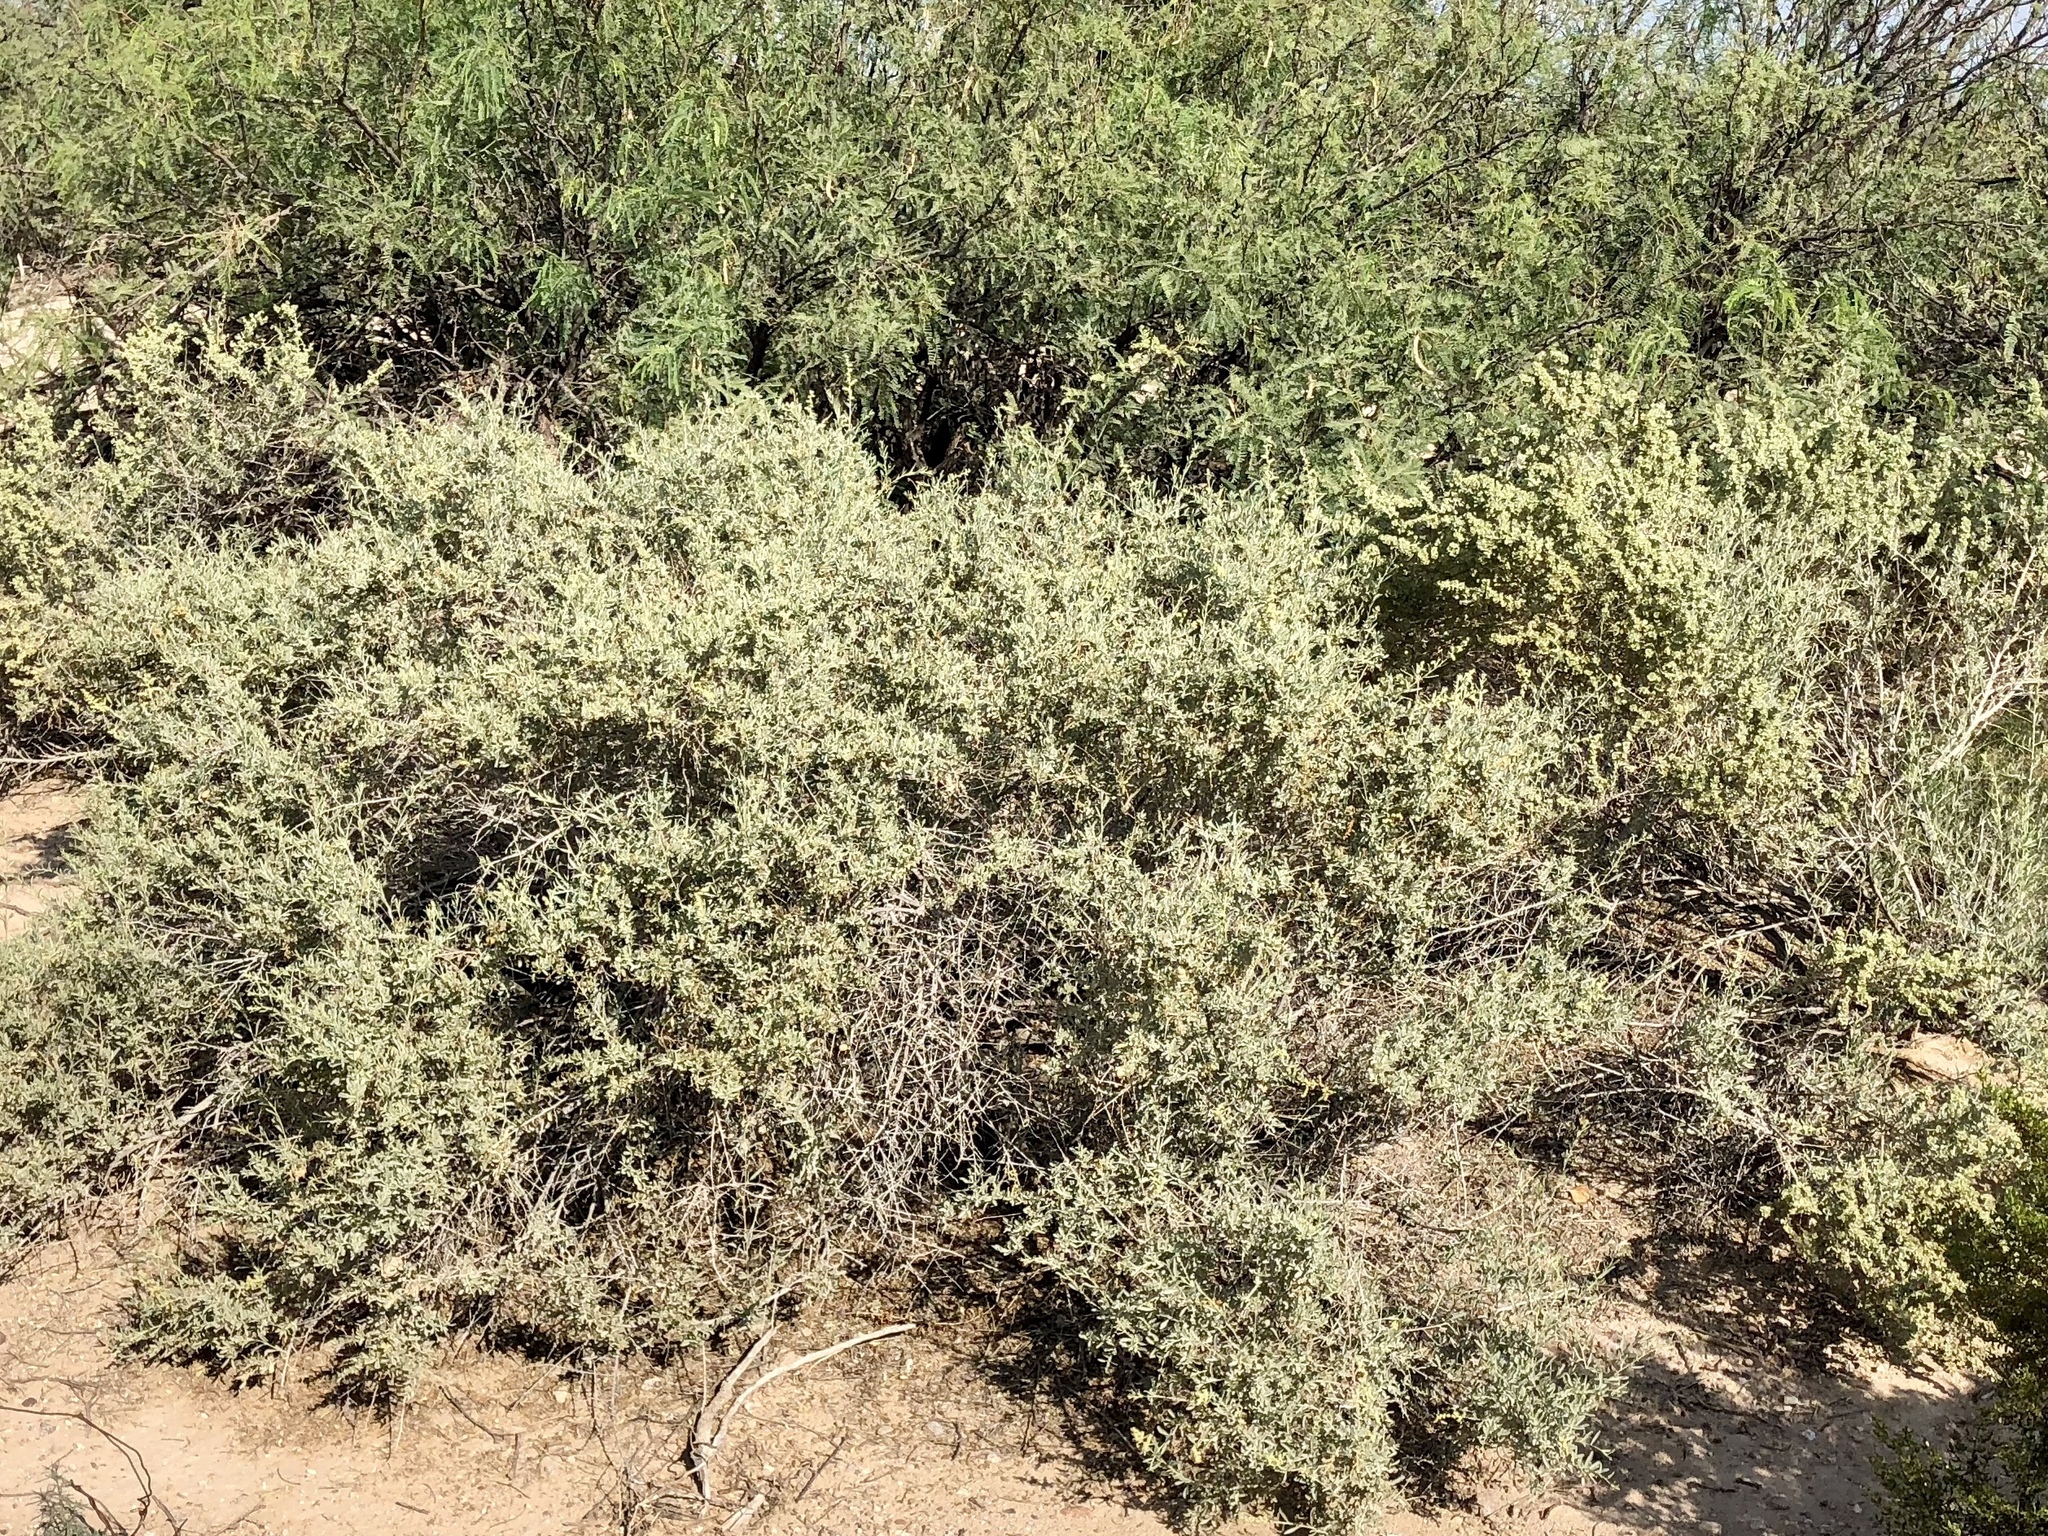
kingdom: Plantae
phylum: Tracheophyta
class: Magnoliopsida
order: Caryophyllales
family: Amaranthaceae
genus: Atriplex
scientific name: Atriplex canescens
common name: Four-wing saltbush
